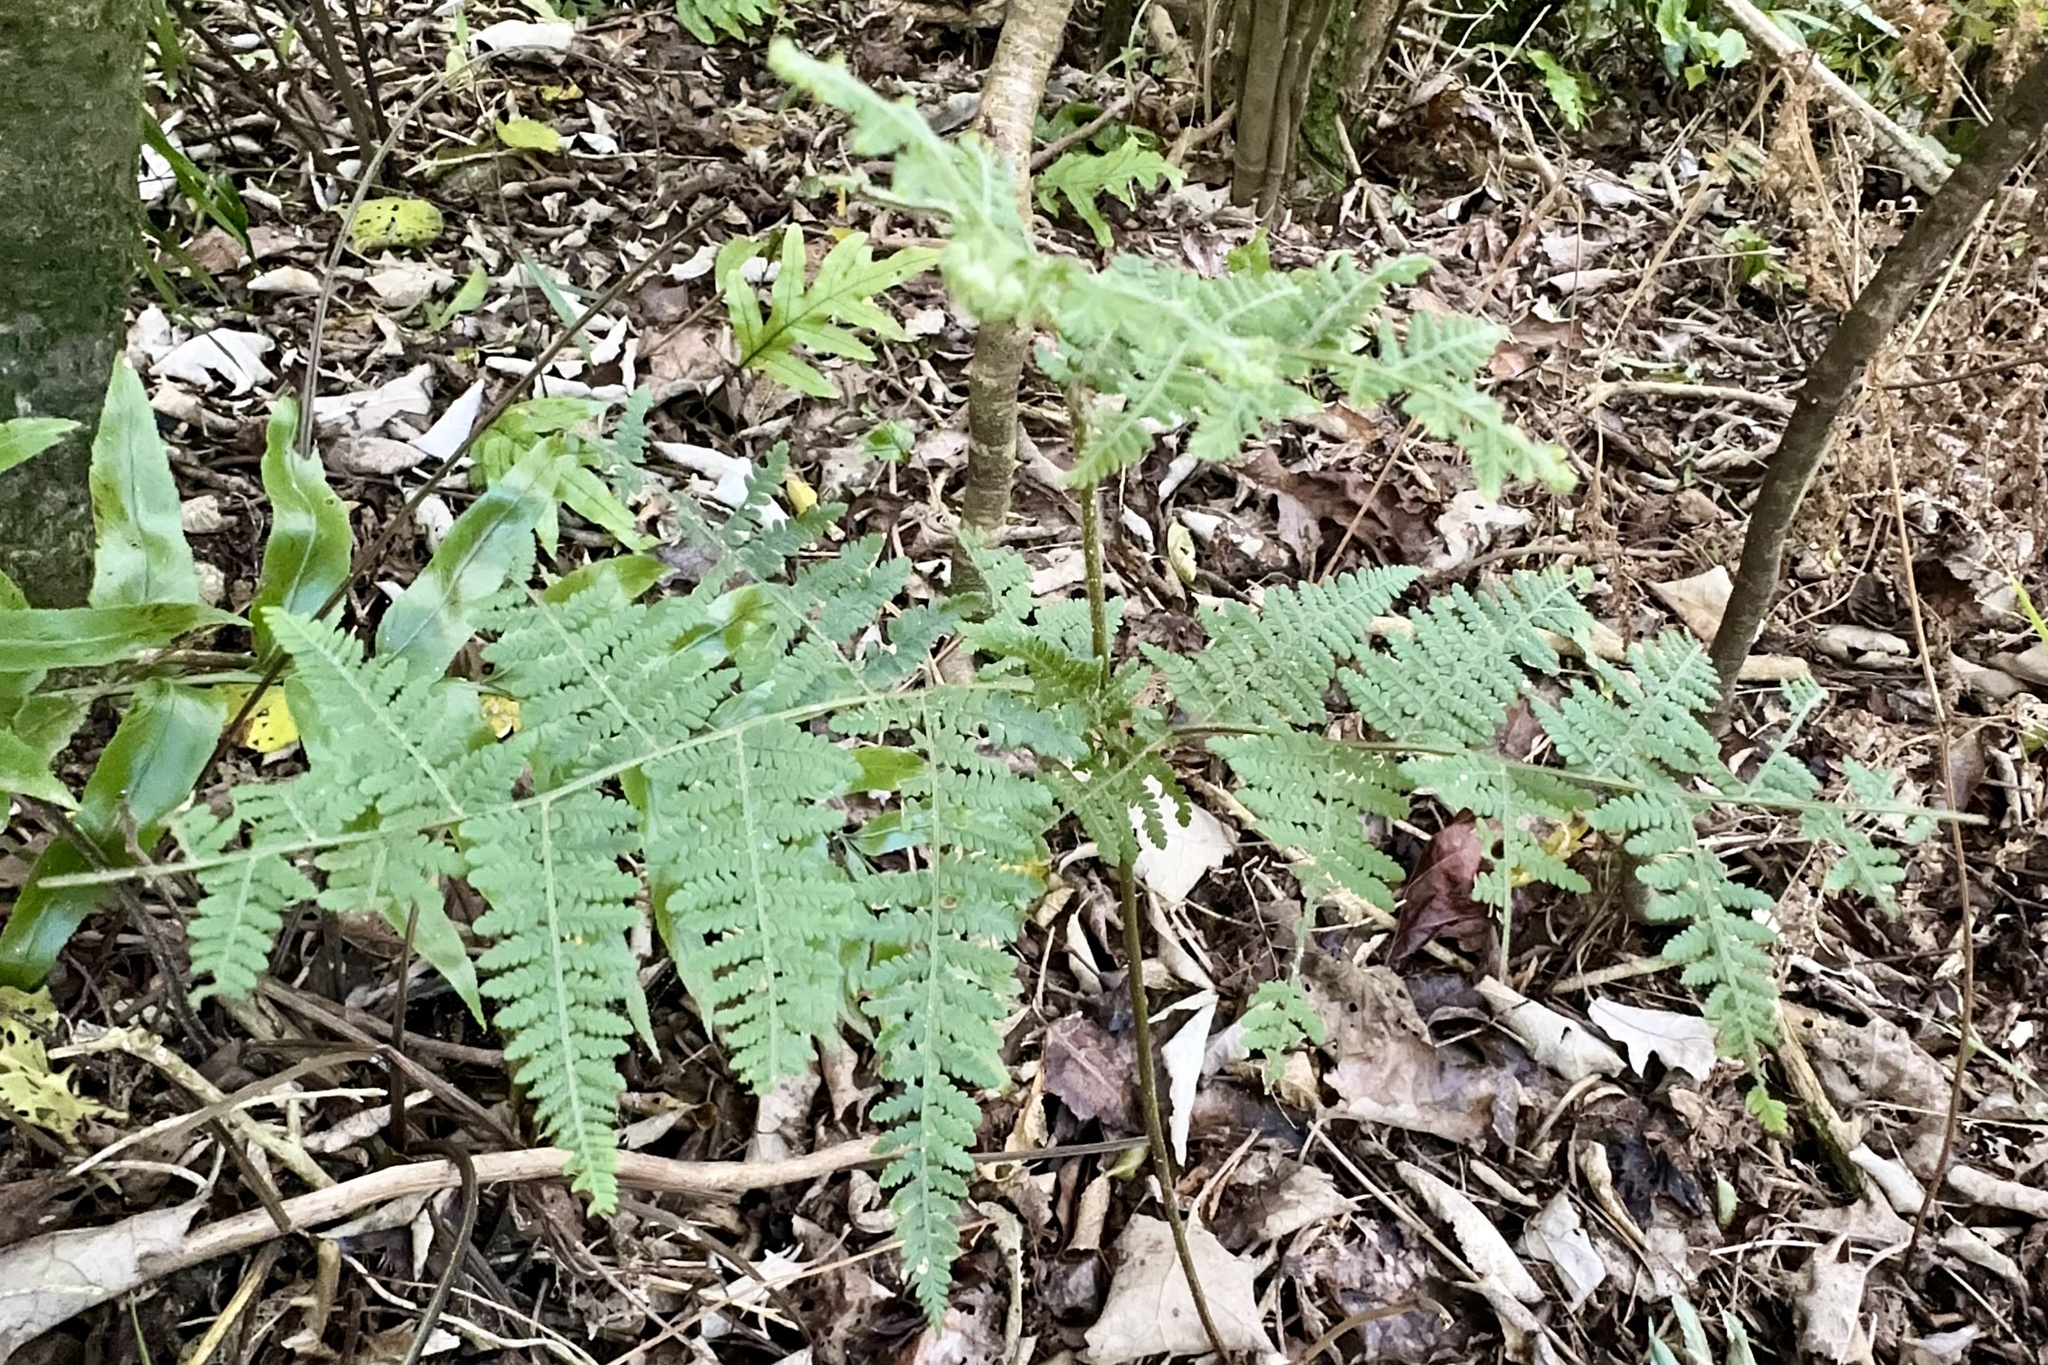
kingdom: Plantae
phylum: Tracheophyta
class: Polypodiopsida
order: Polypodiales
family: Dennstaedtiaceae
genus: Hypolepis
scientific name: Hypolepis ambigua
